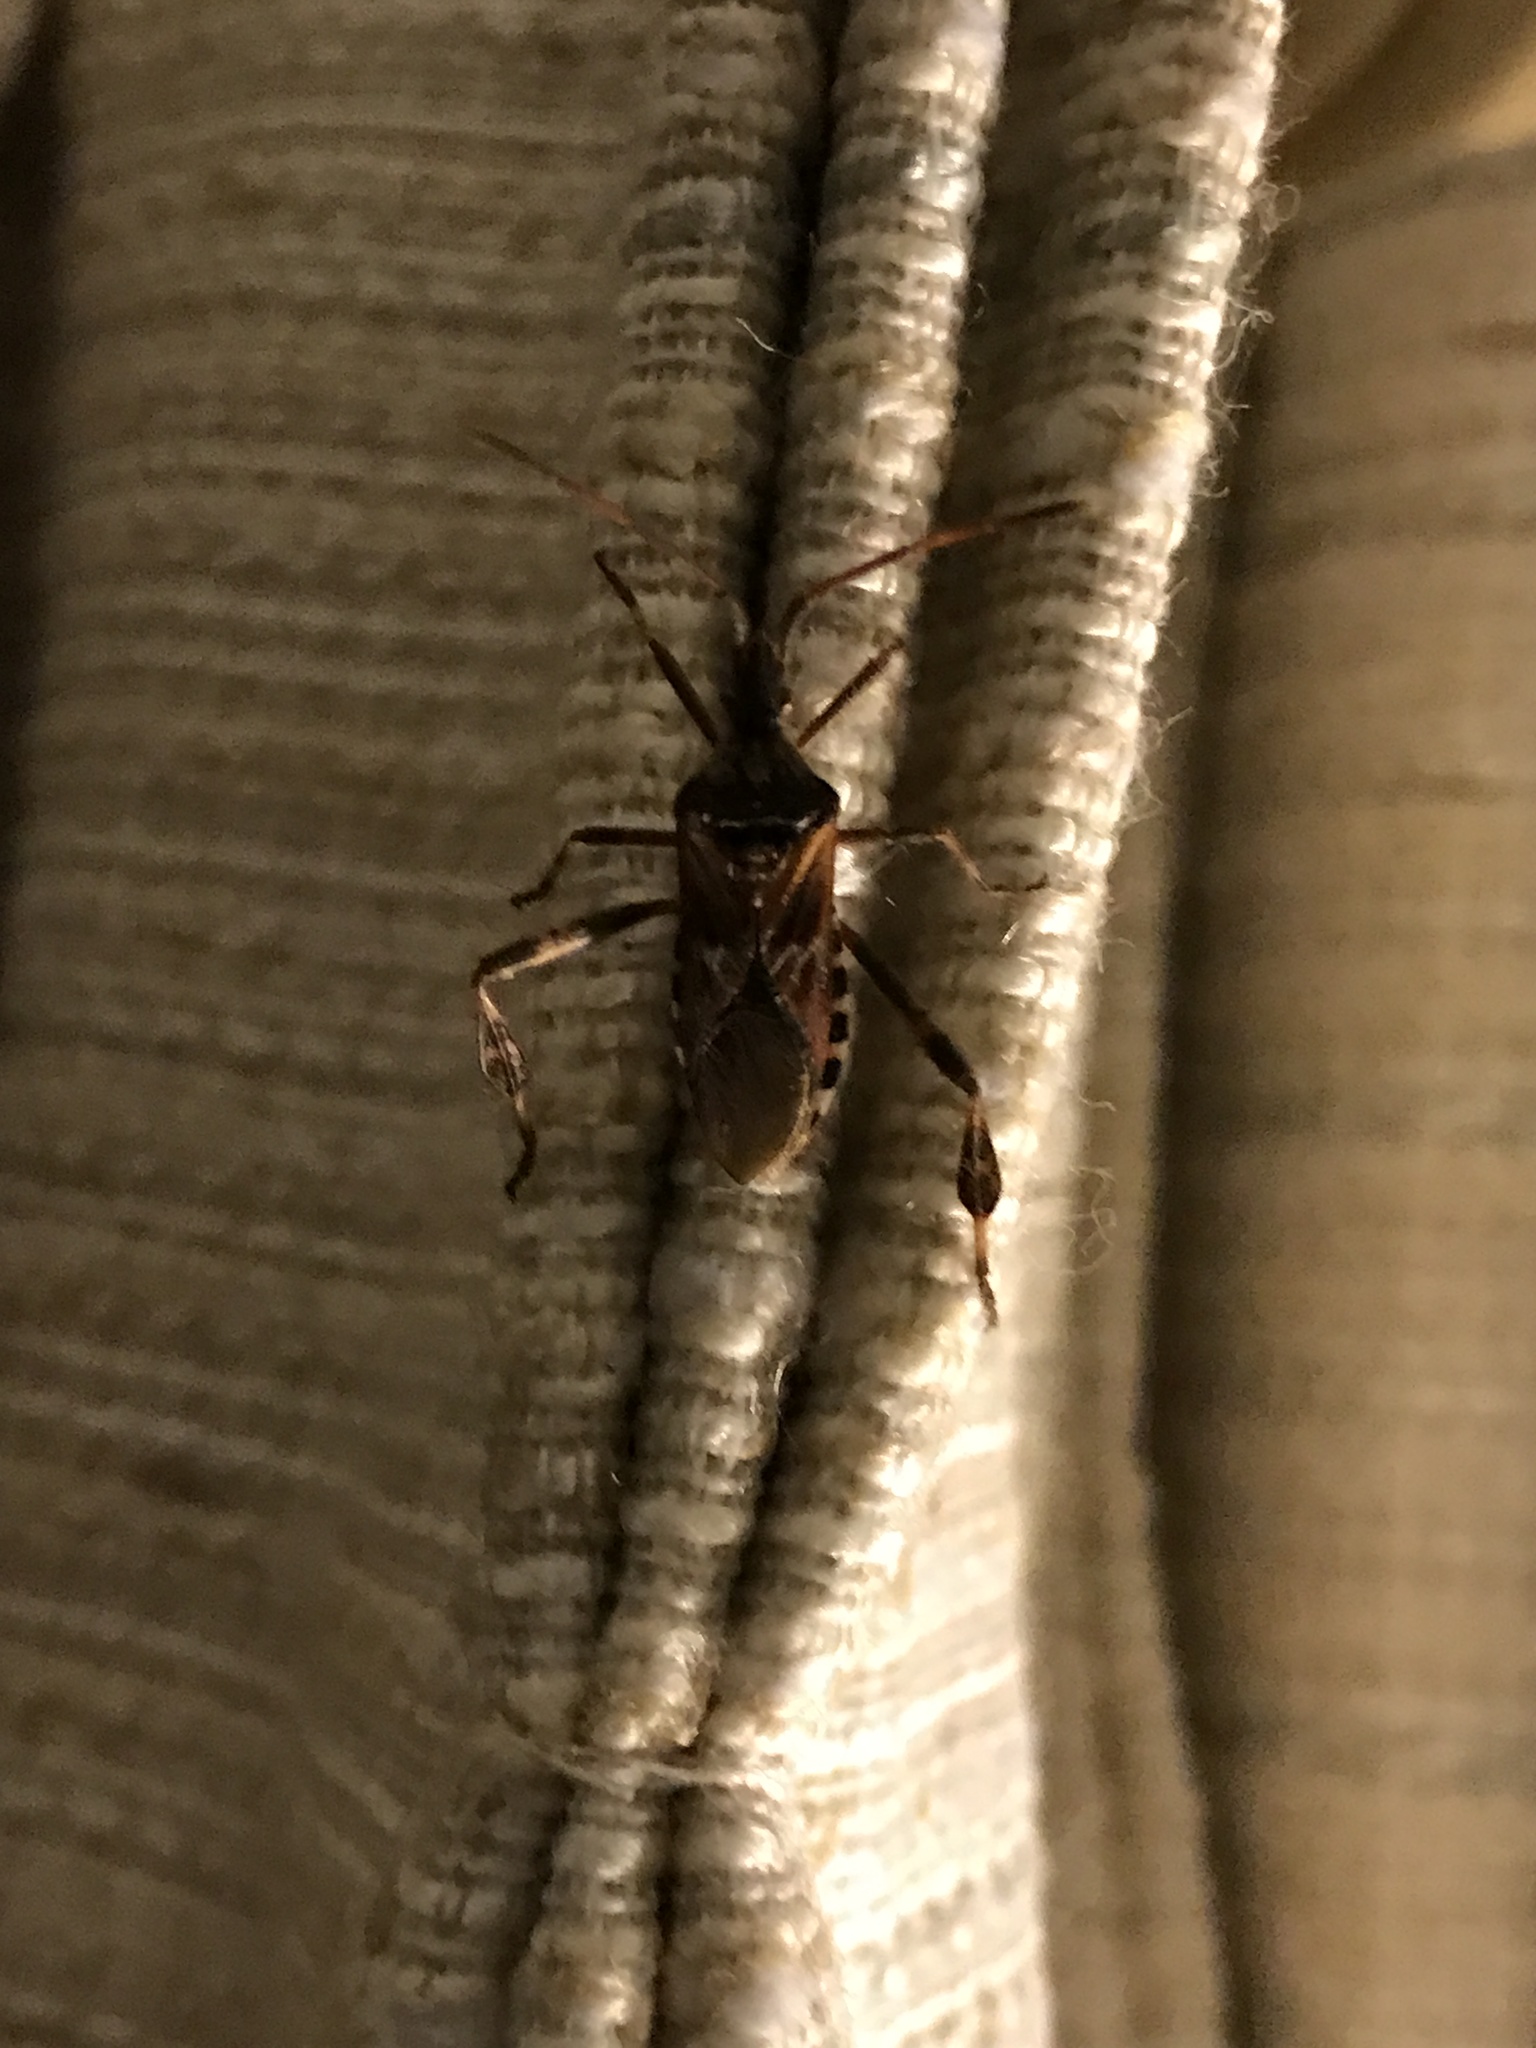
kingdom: Animalia
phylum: Arthropoda
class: Insecta
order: Hemiptera
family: Coreidae
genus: Leptoglossus
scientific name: Leptoglossus occidentalis
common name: Western conifer-seed bug
